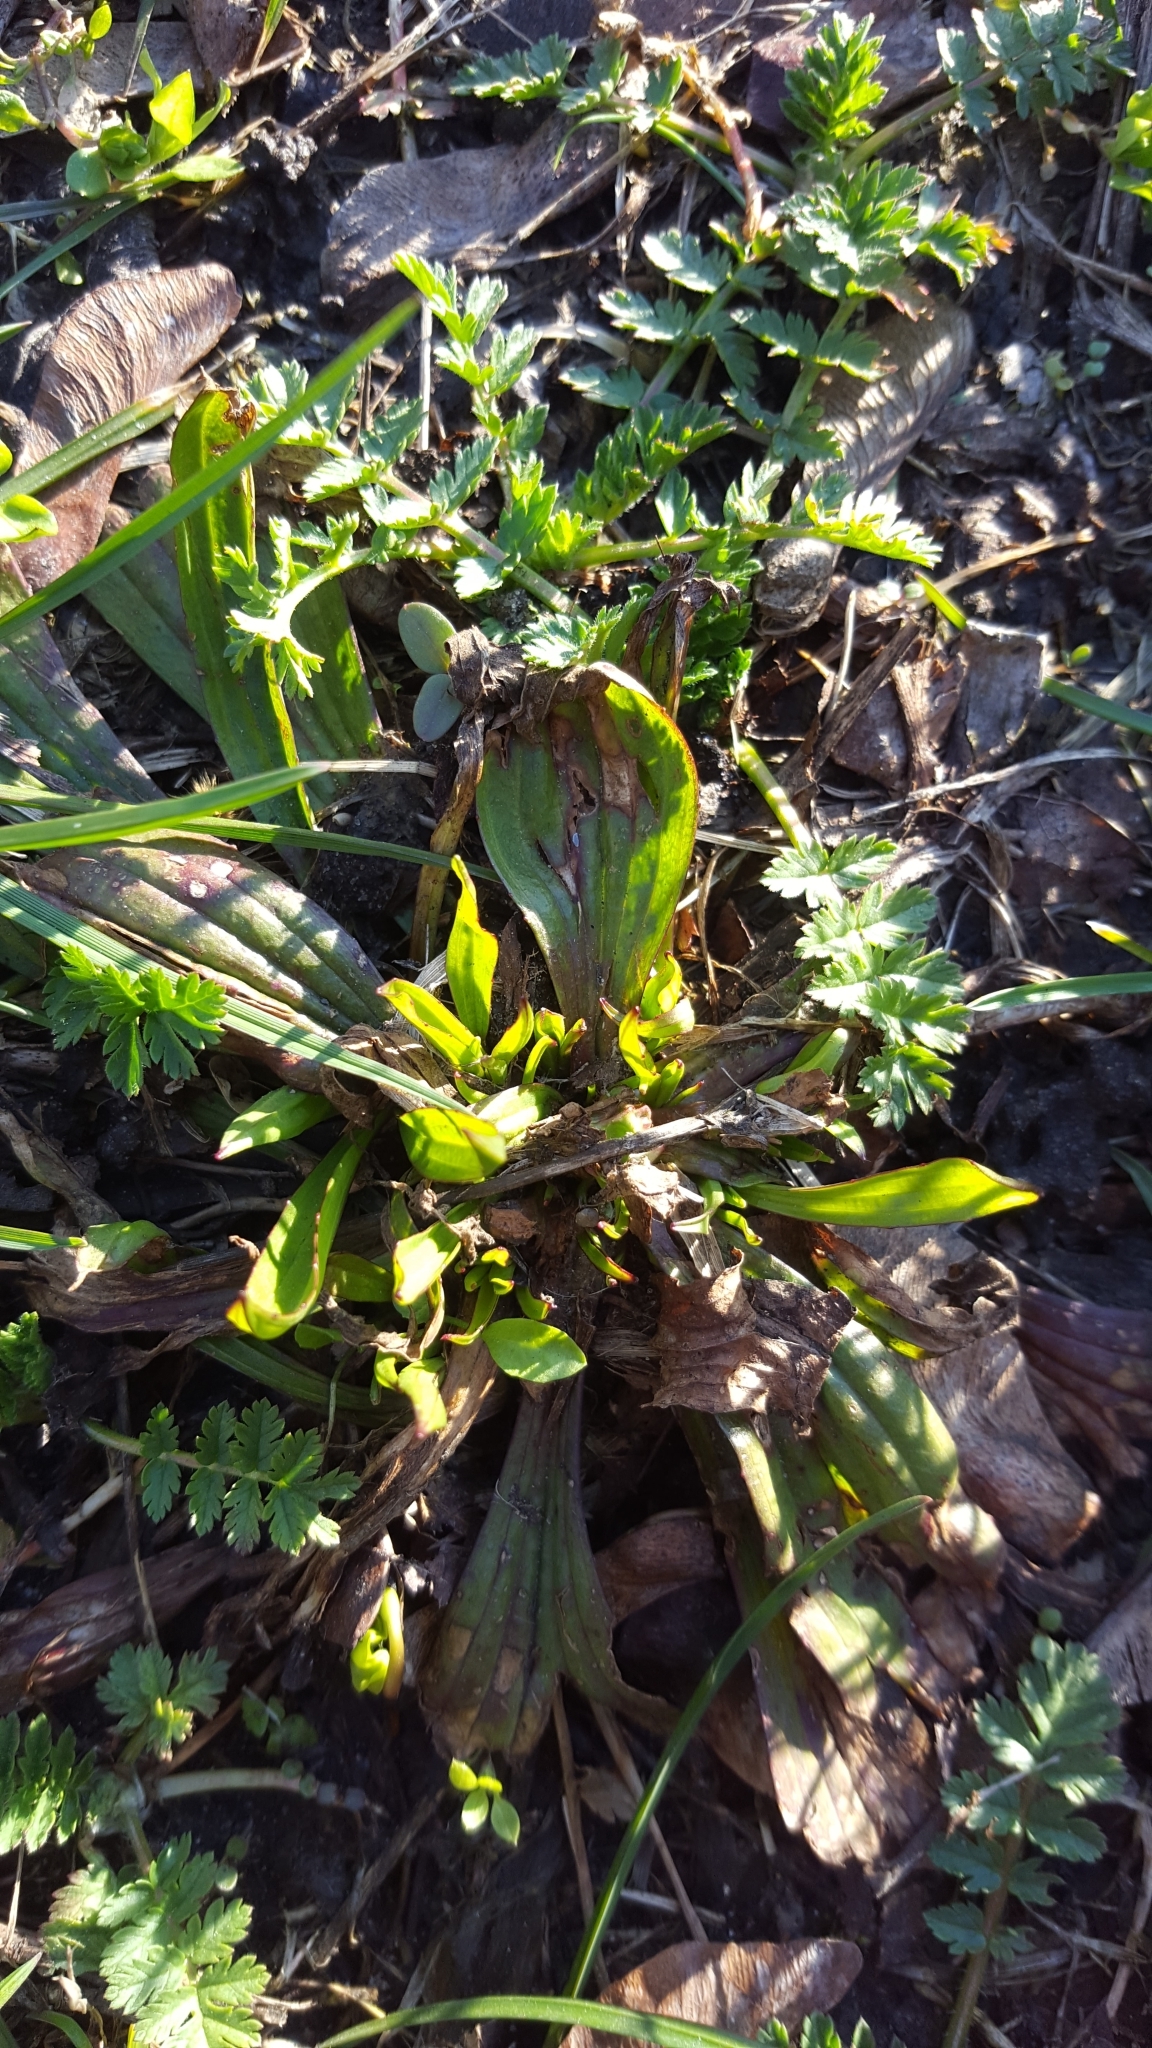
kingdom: Plantae
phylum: Tracheophyta
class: Magnoliopsida
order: Lamiales
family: Plantaginaceae
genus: Plantago
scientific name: Plantago lanceolata
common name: Ribwort plantain
